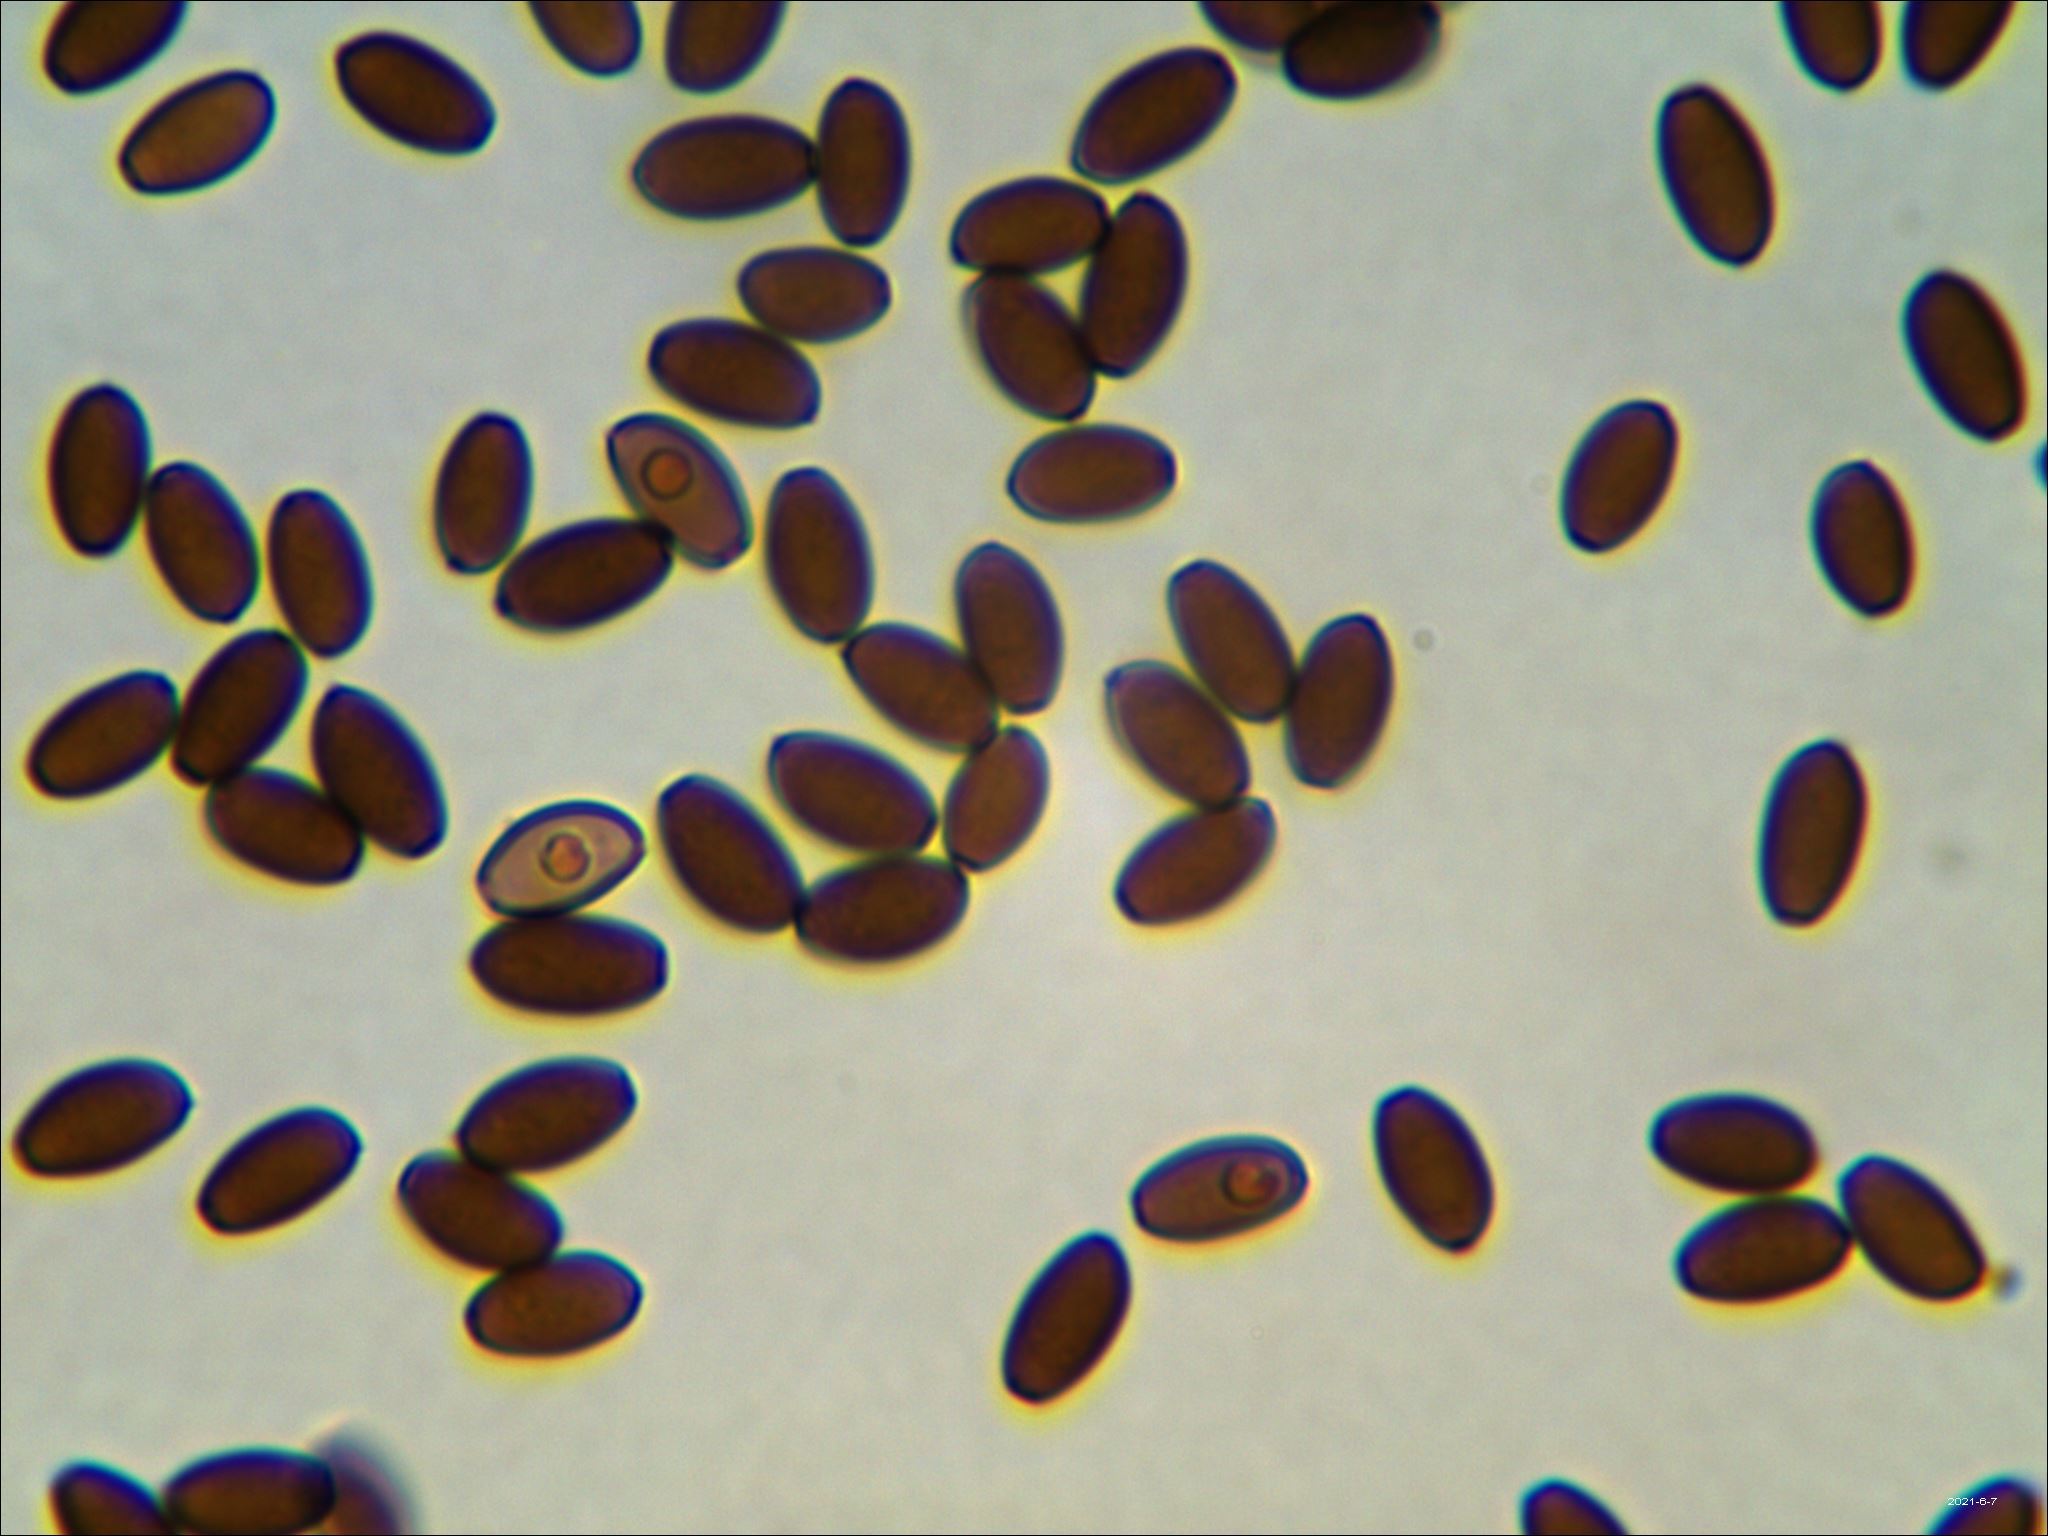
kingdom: Fungi
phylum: Basidiomycota
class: Agaricomycetes
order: Agaricales
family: Psathyrellaceae
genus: Coprinopsis
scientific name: Coprinopsis variegata
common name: Scaly ink cap
